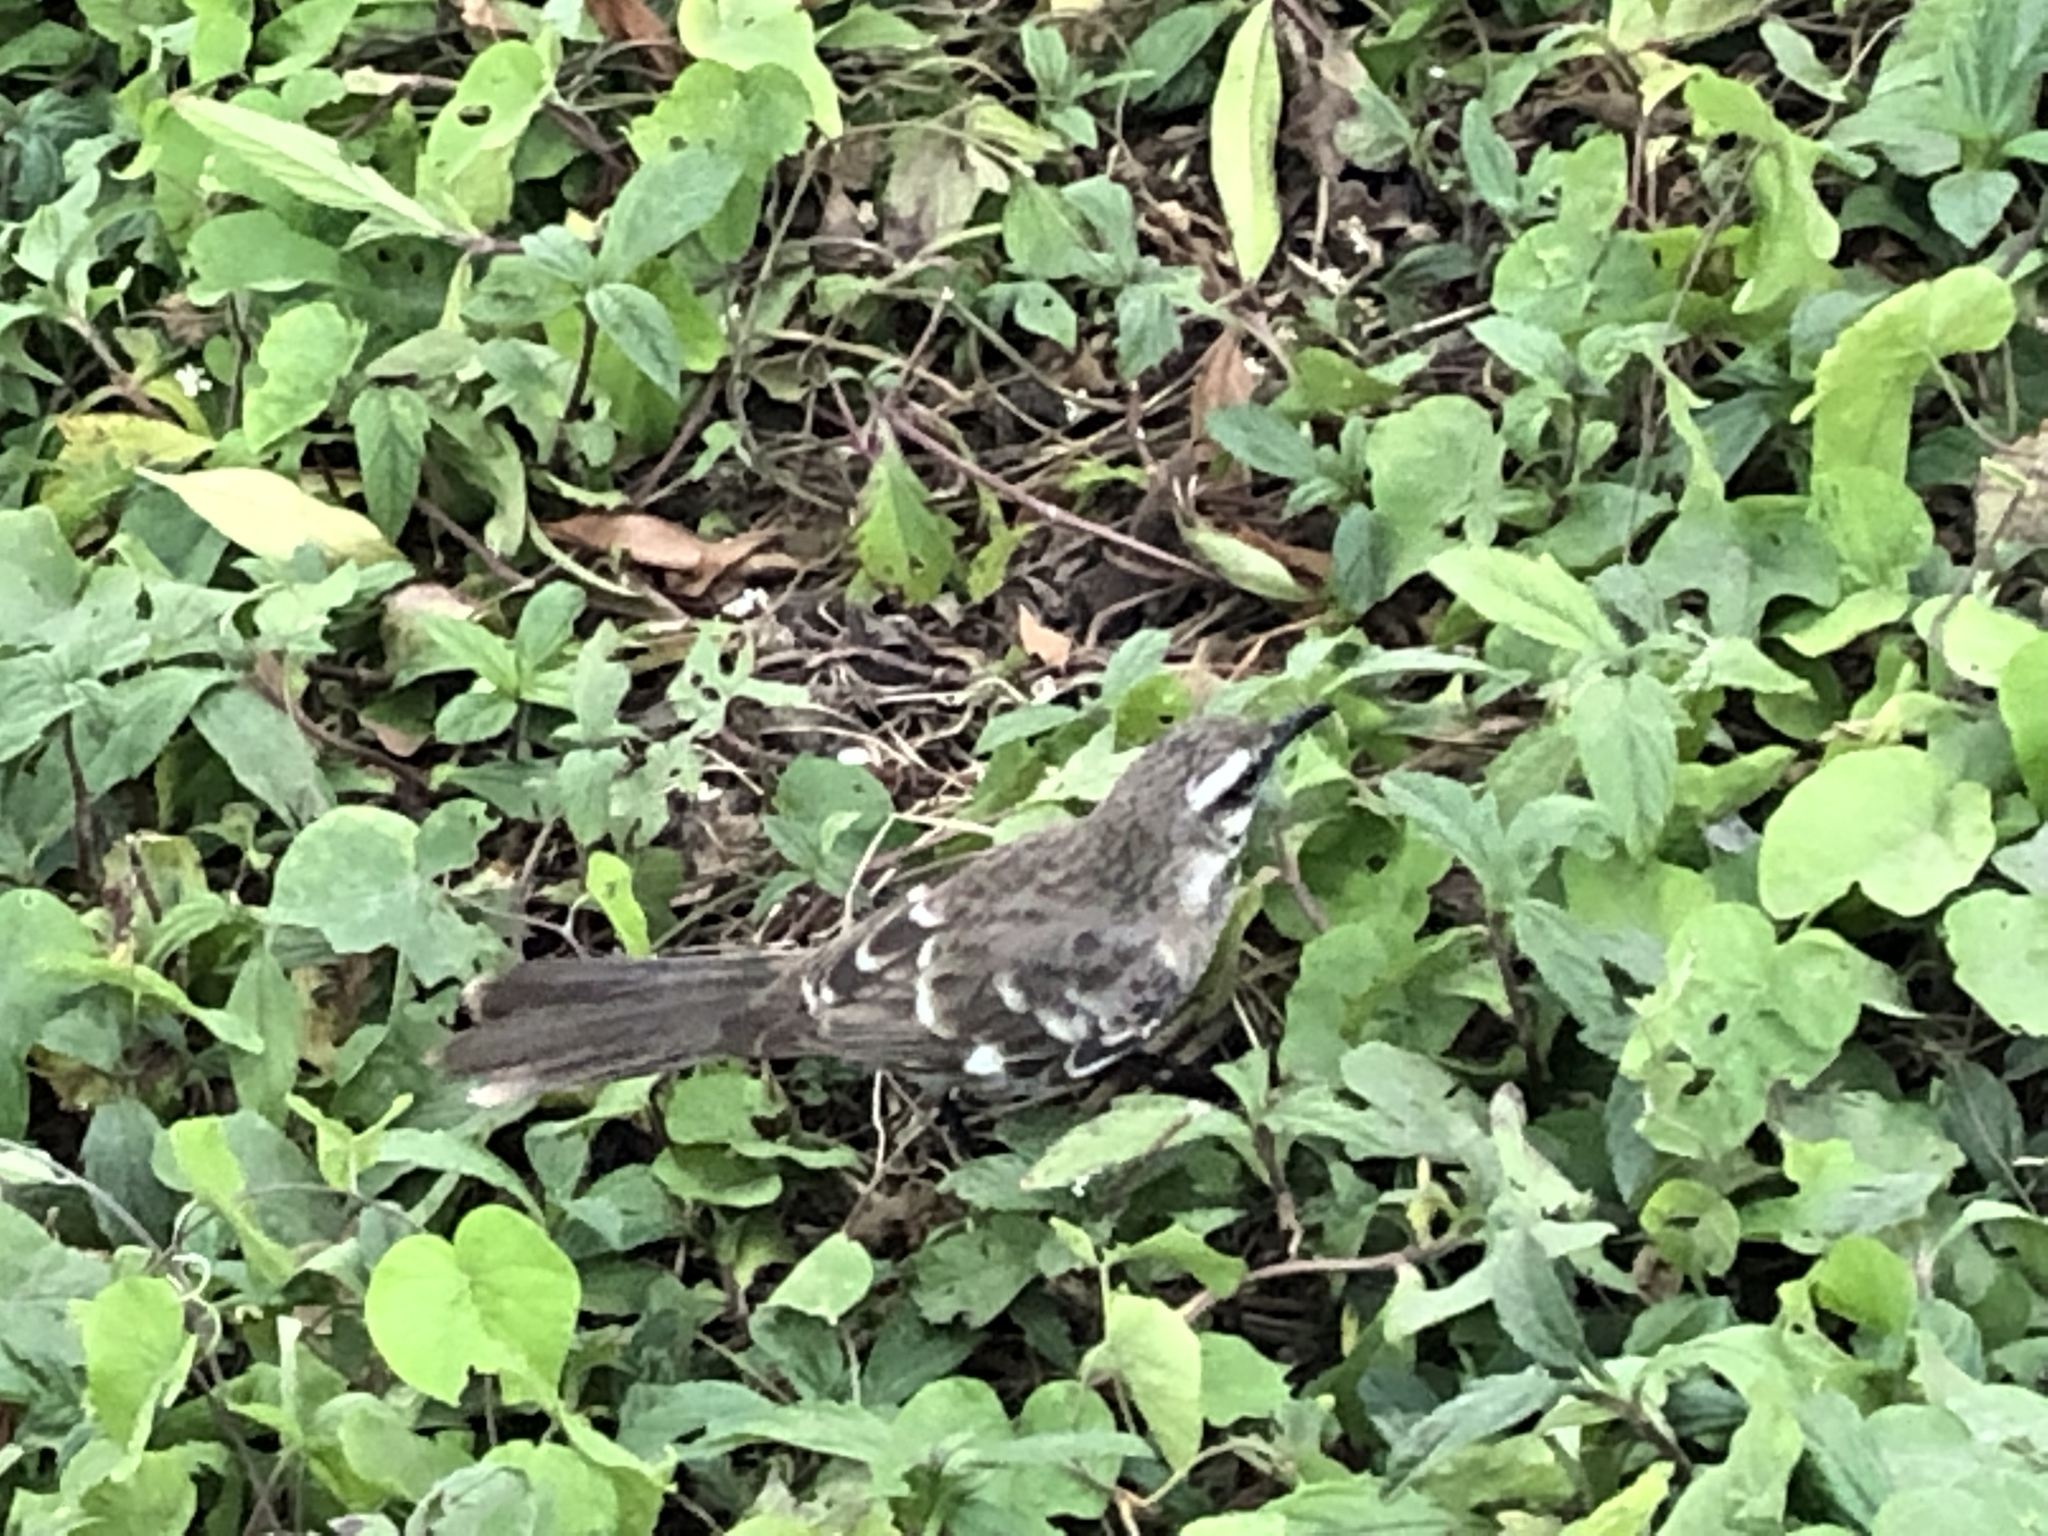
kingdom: Animalia
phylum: Chordata
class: Aves
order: Passeriformes
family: Mimidae
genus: Mimus
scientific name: Mimus longicaudatus
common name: Long-tailed mockingbird
